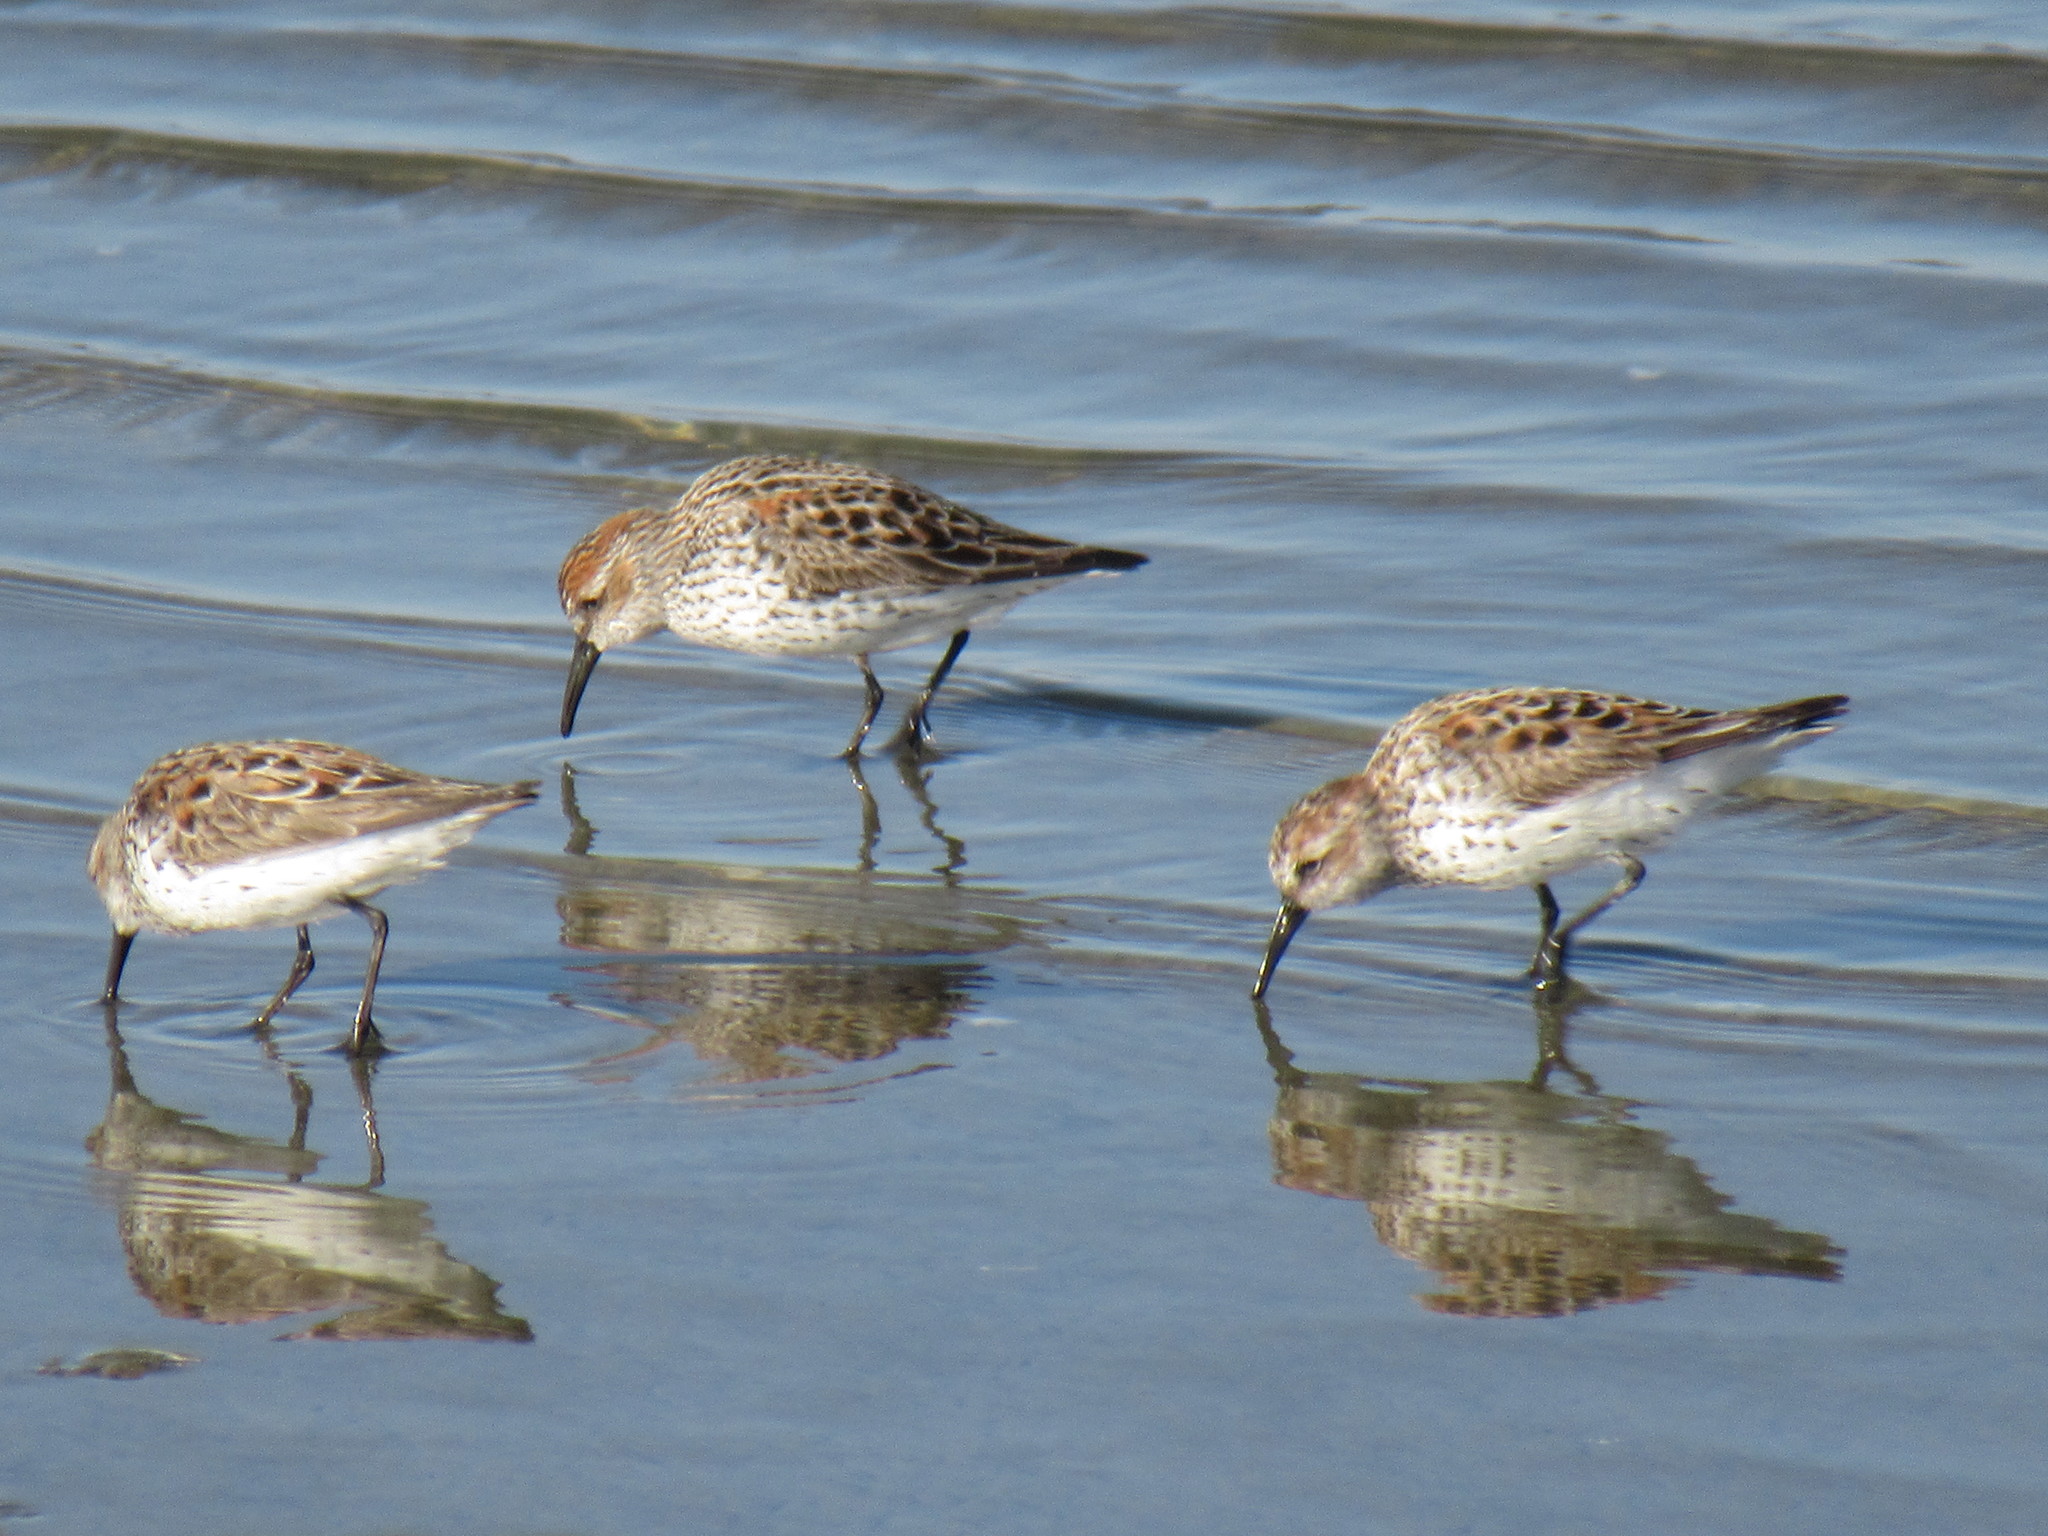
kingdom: Animalia
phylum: Chordata
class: Aves
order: Charadriiformes
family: Scolopacidae
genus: Calidris
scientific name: Calidris mauri
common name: Western sandpiper
